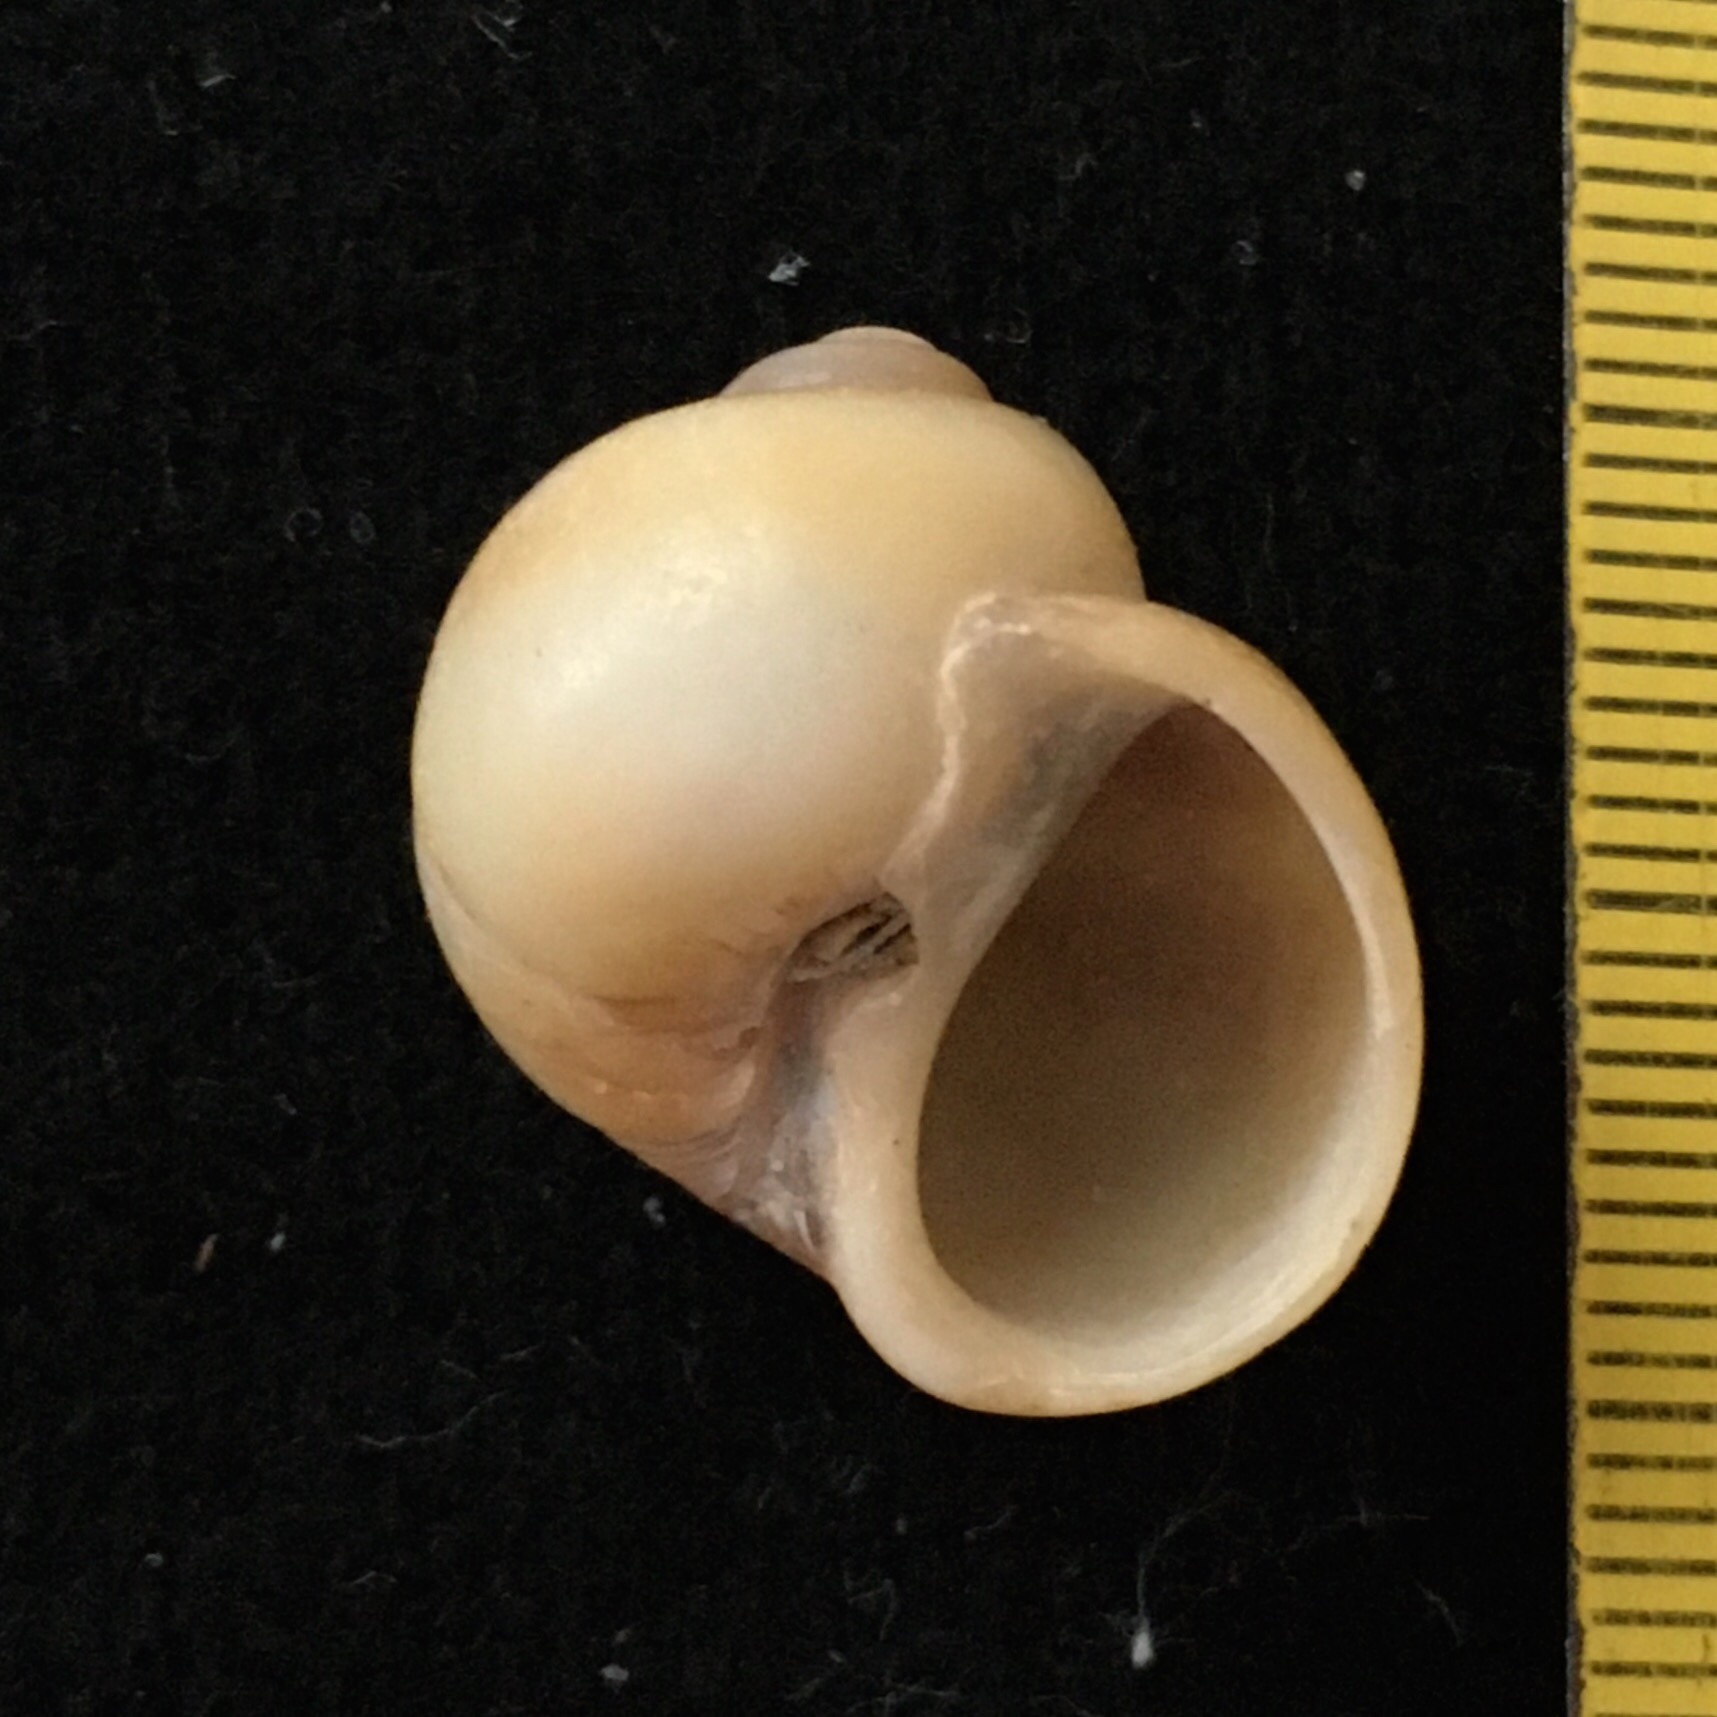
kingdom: Animalia
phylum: Mollusca
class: Gastropoda
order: Littorinimorpha
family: Naticidae
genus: Notocochlis
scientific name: Notocochlis isabelleana
